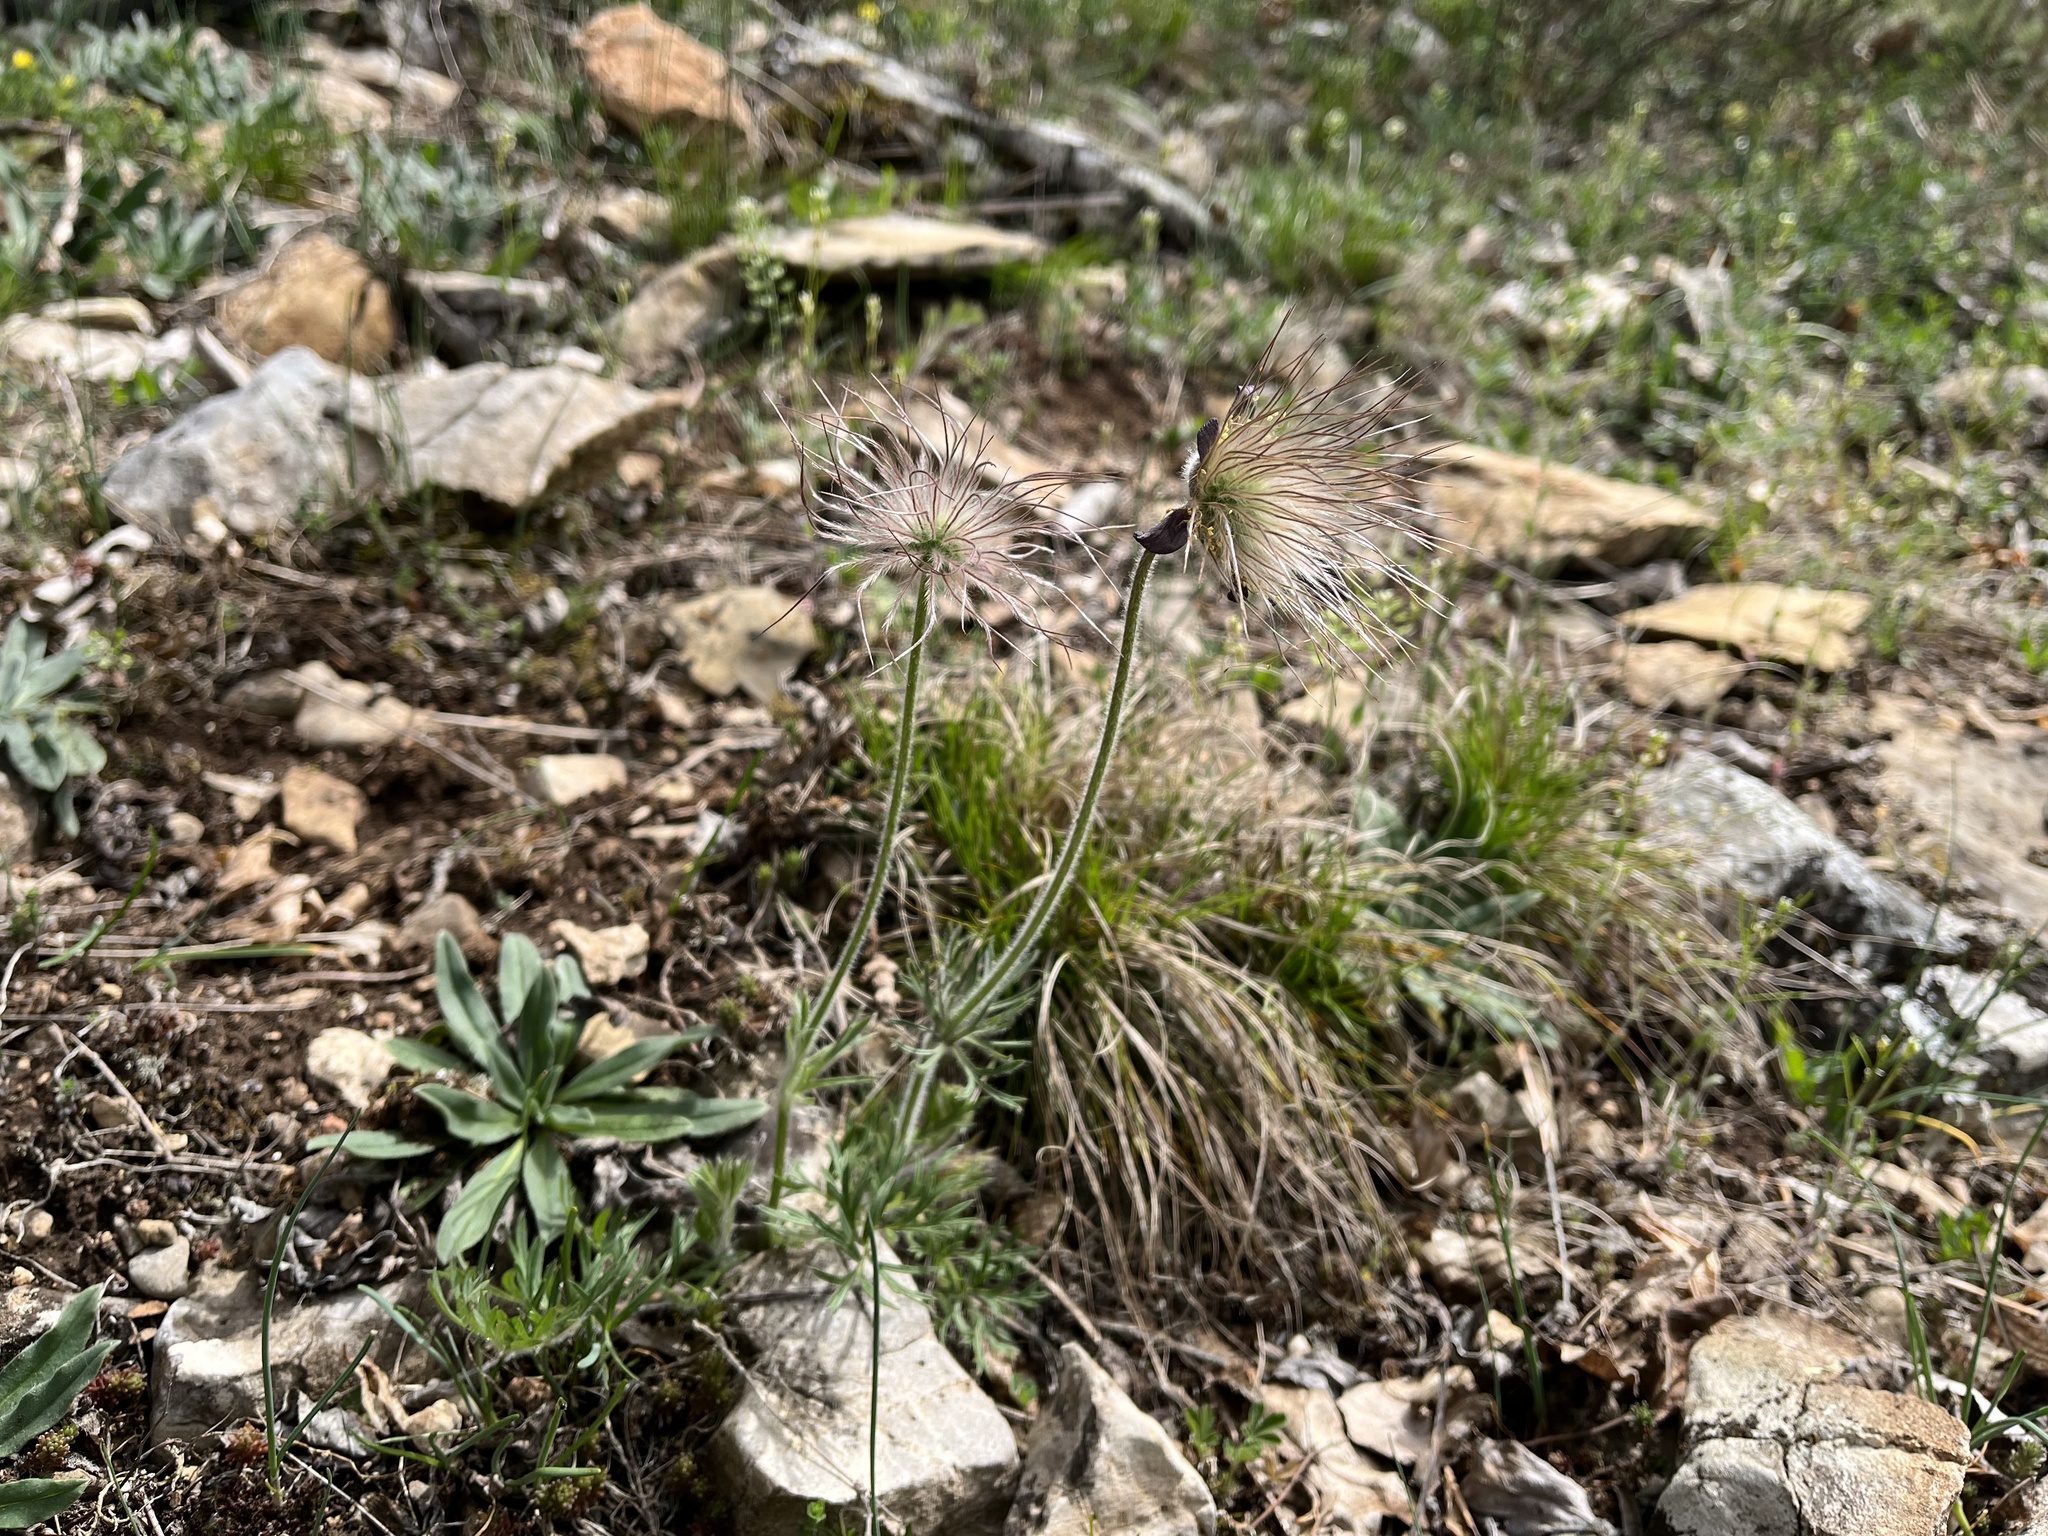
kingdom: Plantae
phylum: Tracheophyta
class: Magnoliopsida
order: Ranunculales
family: Ranunculaceae
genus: Pulsatilla
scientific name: Pulsatilla pratensis
